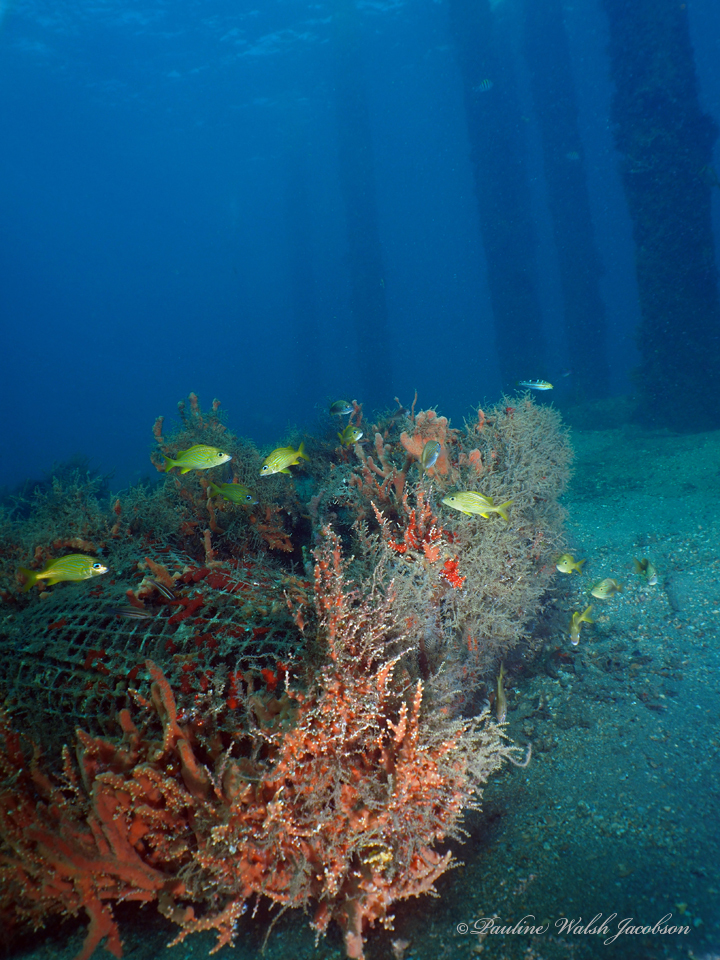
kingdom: Animalia
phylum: Chordata
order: Perciformes
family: Haemulidae
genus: Haemulon
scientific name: Haemulon flavolineatum
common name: French grunt
